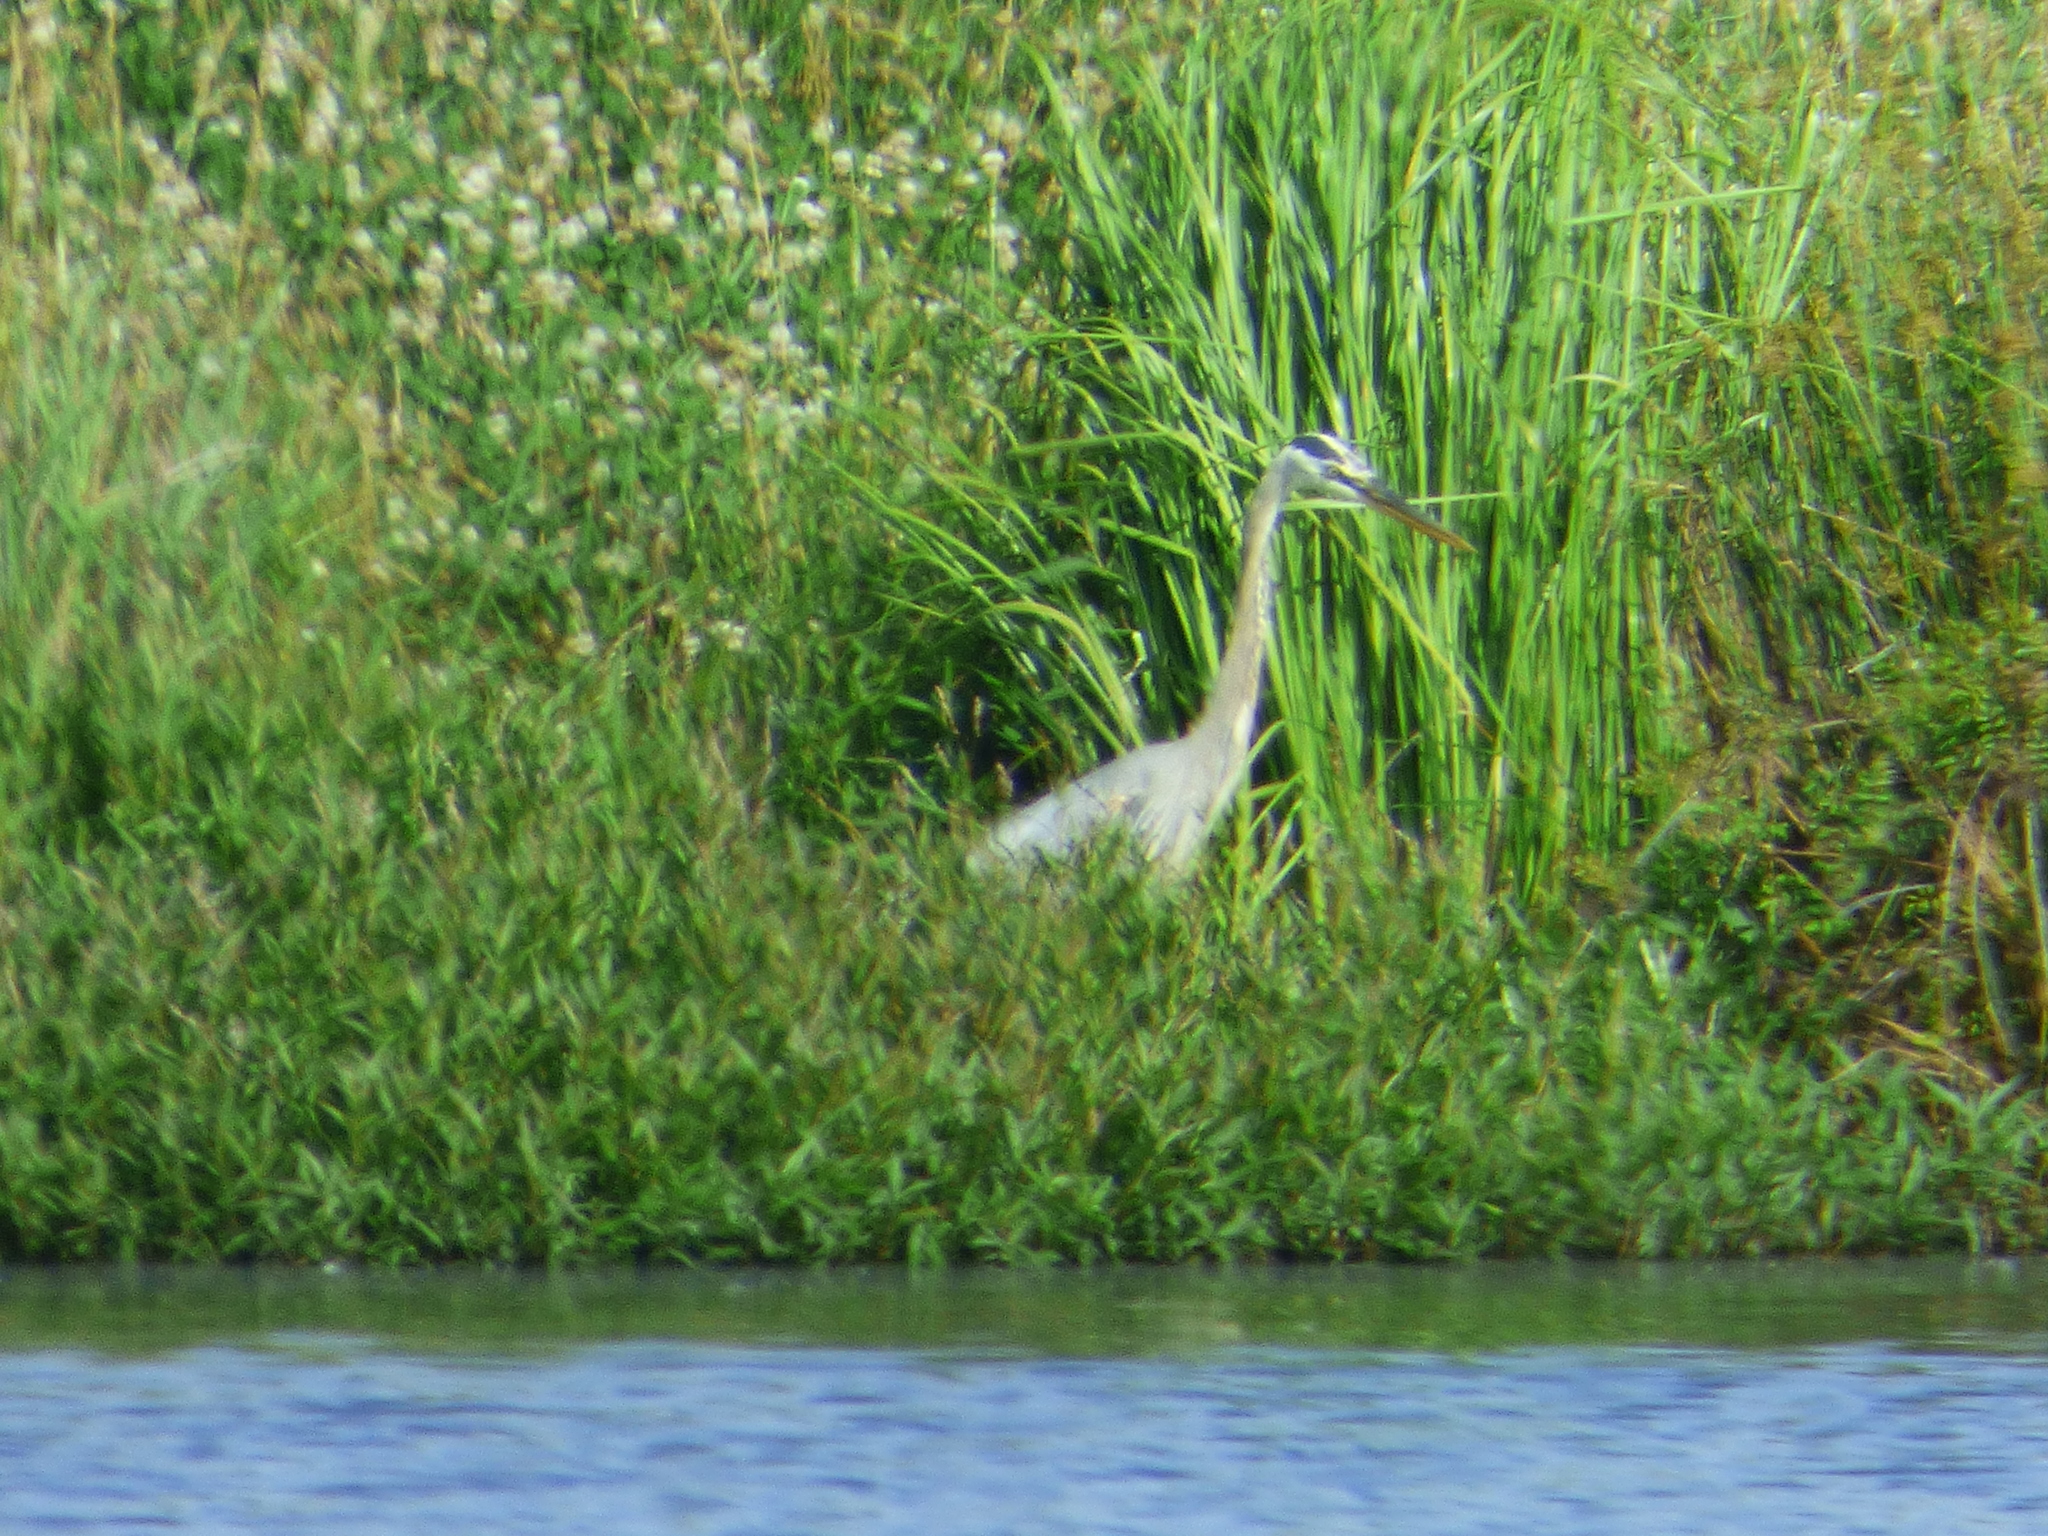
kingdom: Animalia
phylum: Chordata
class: Aves
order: Pelecaniformes
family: Ardeidae
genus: Ardea
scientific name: Ardea herodias
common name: Great blue heron
